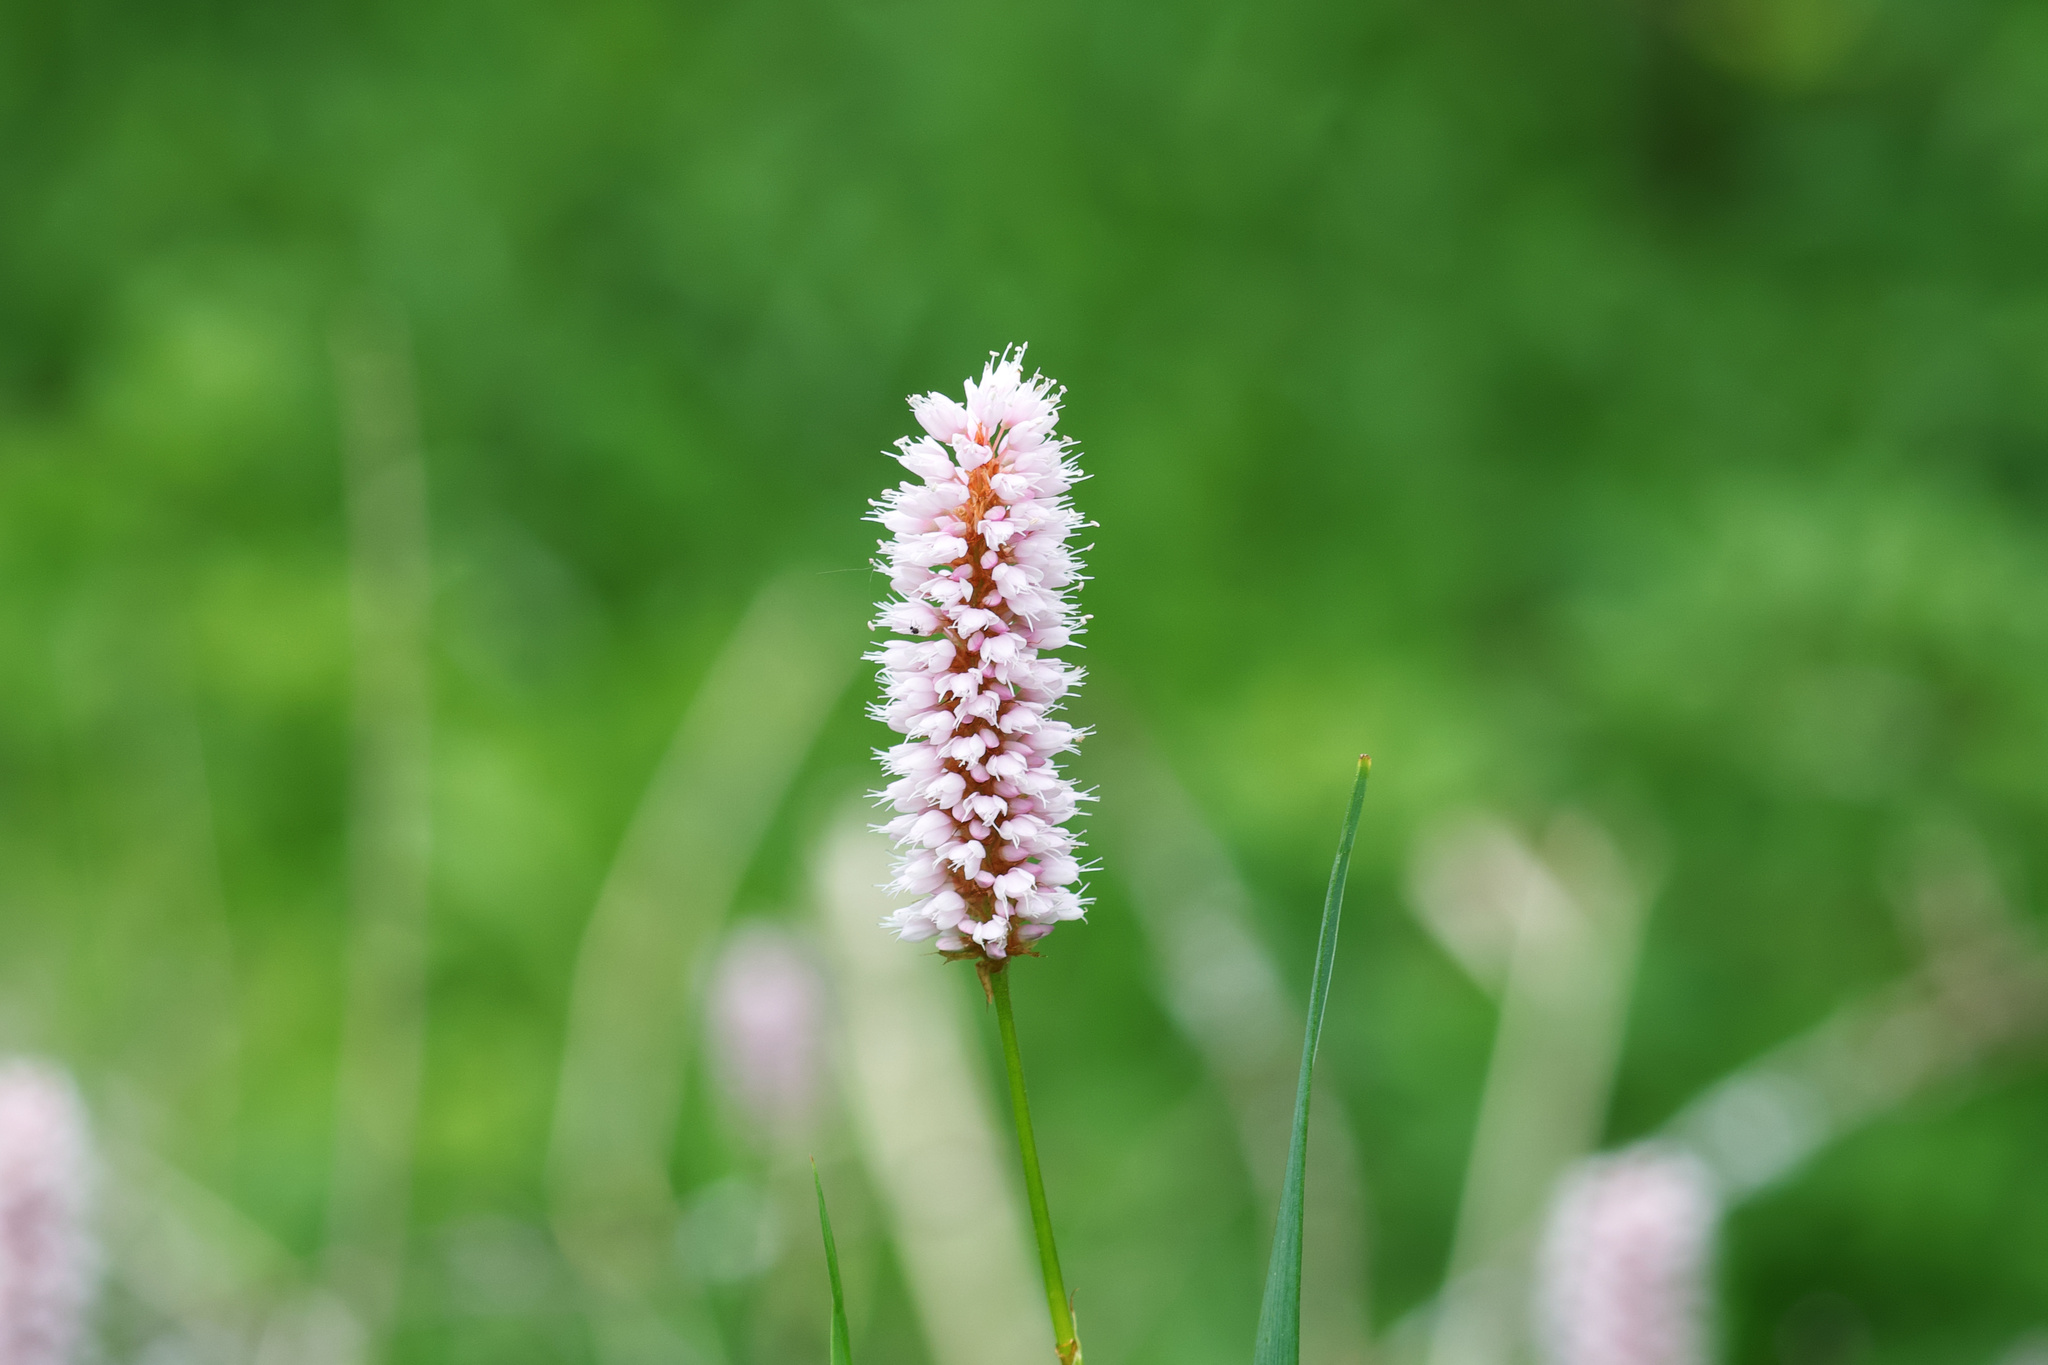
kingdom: Plantae
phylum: Tracheophyta
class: Magnoliopsida
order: Caryophyllales
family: Polygonaceae
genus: Bistorta
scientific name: Bistorta officinalis
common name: Common bistort
